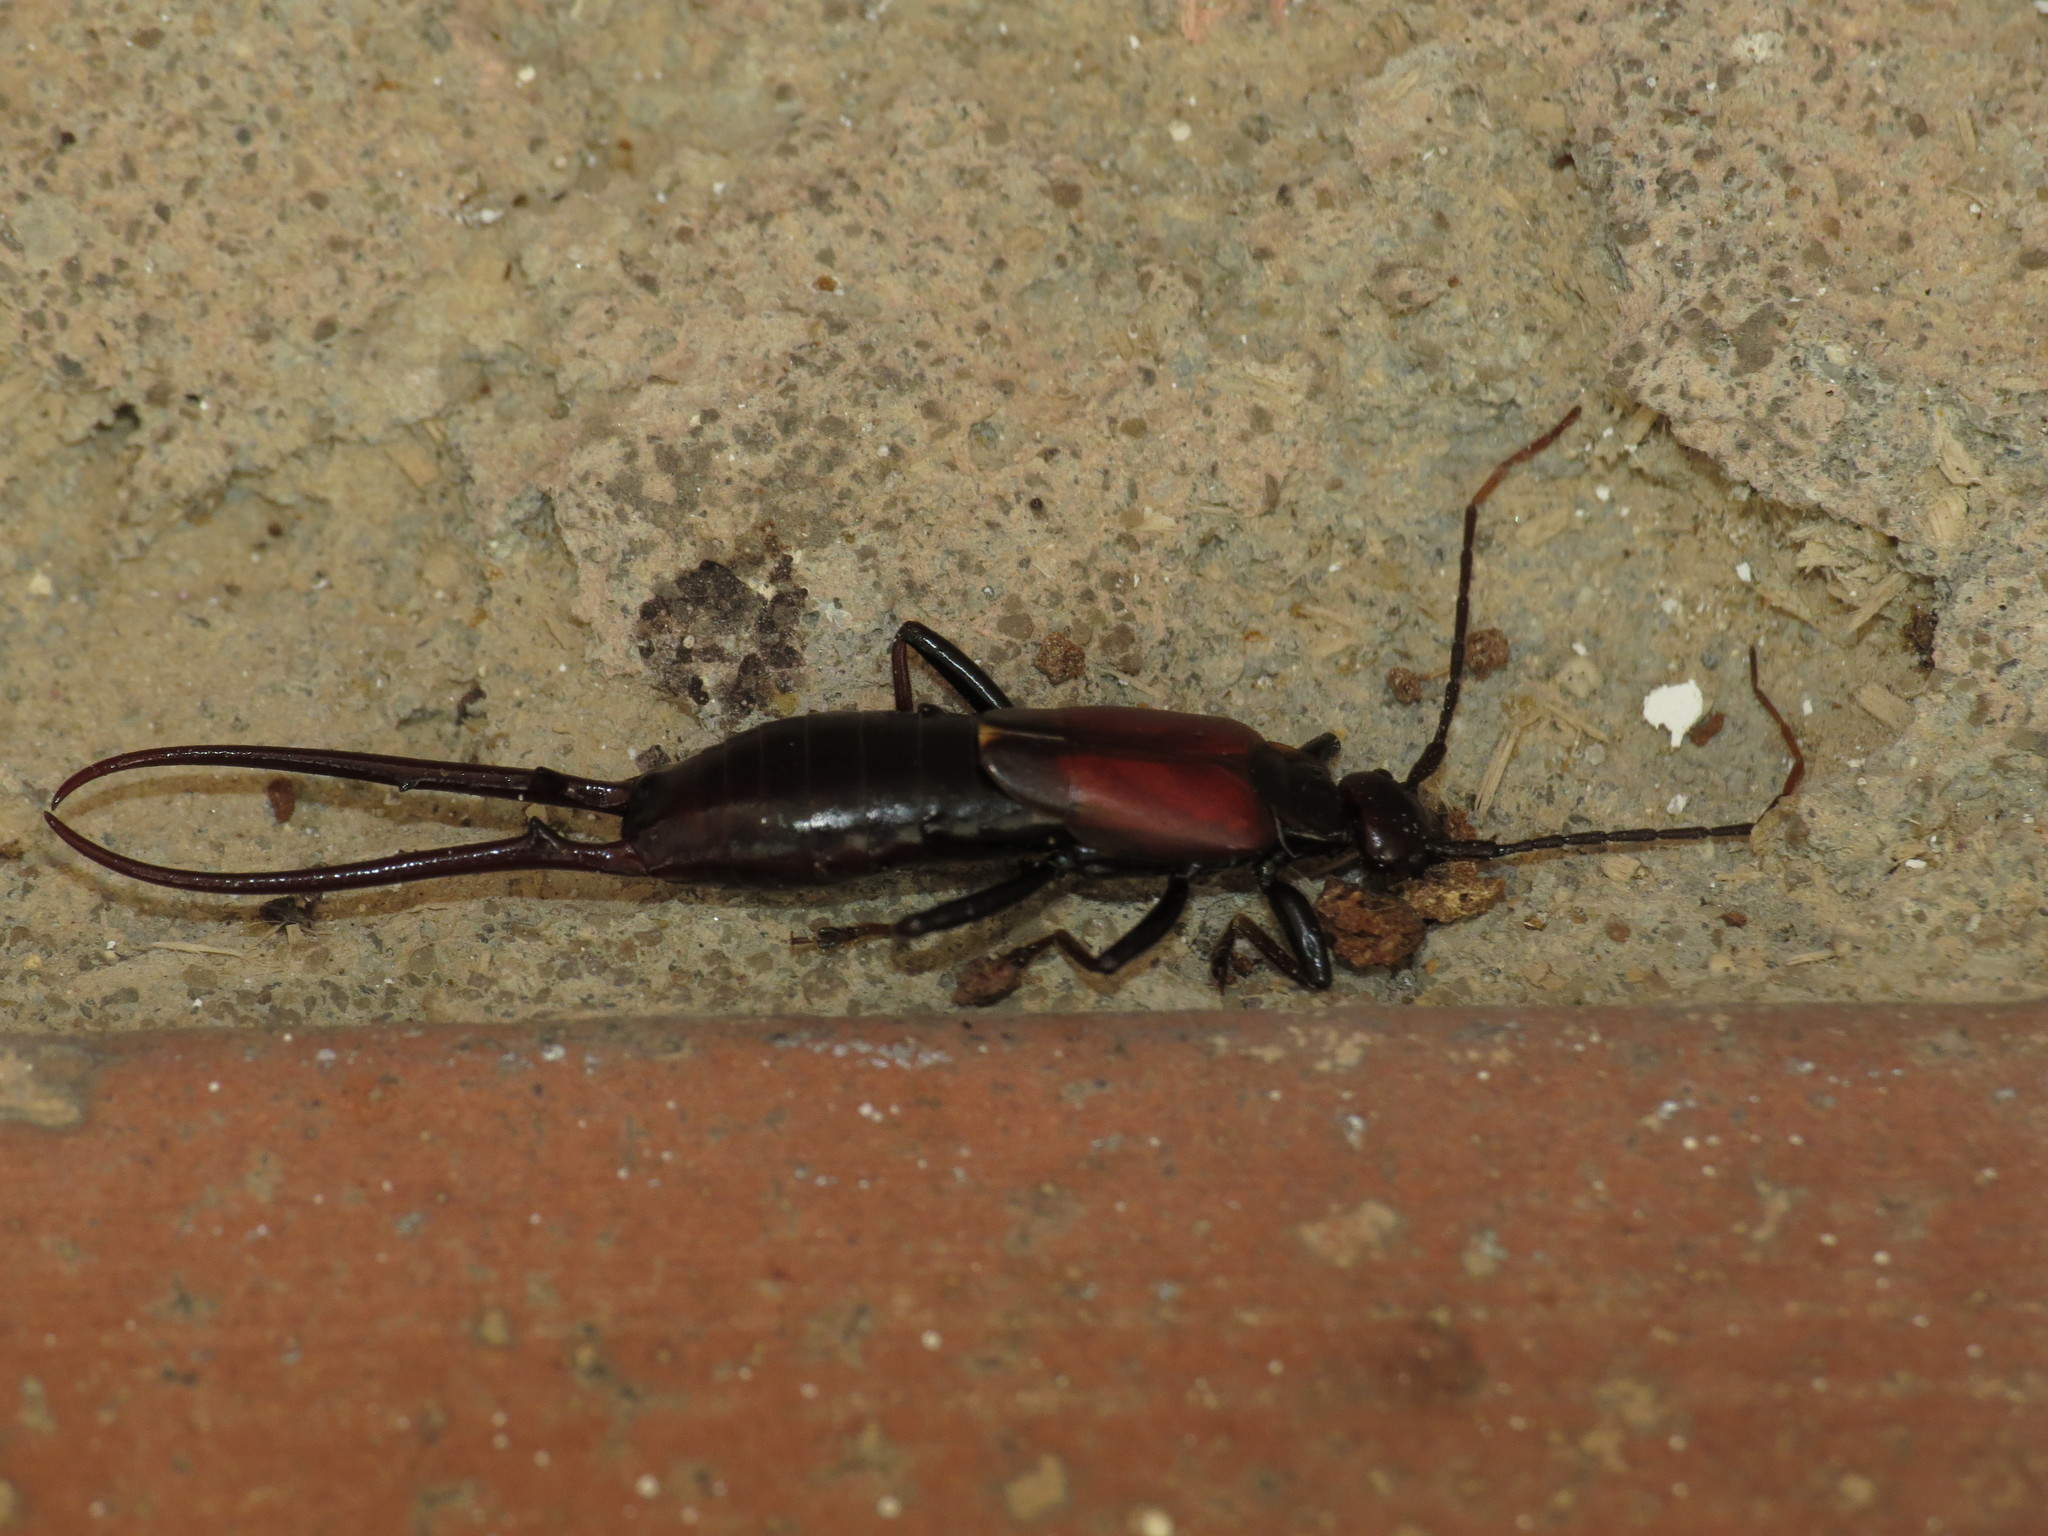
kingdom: Animalia
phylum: Arthropoda
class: Insecta
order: Dermaptera
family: Forficulidae
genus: Timomenus
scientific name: Timomenus komarovi
